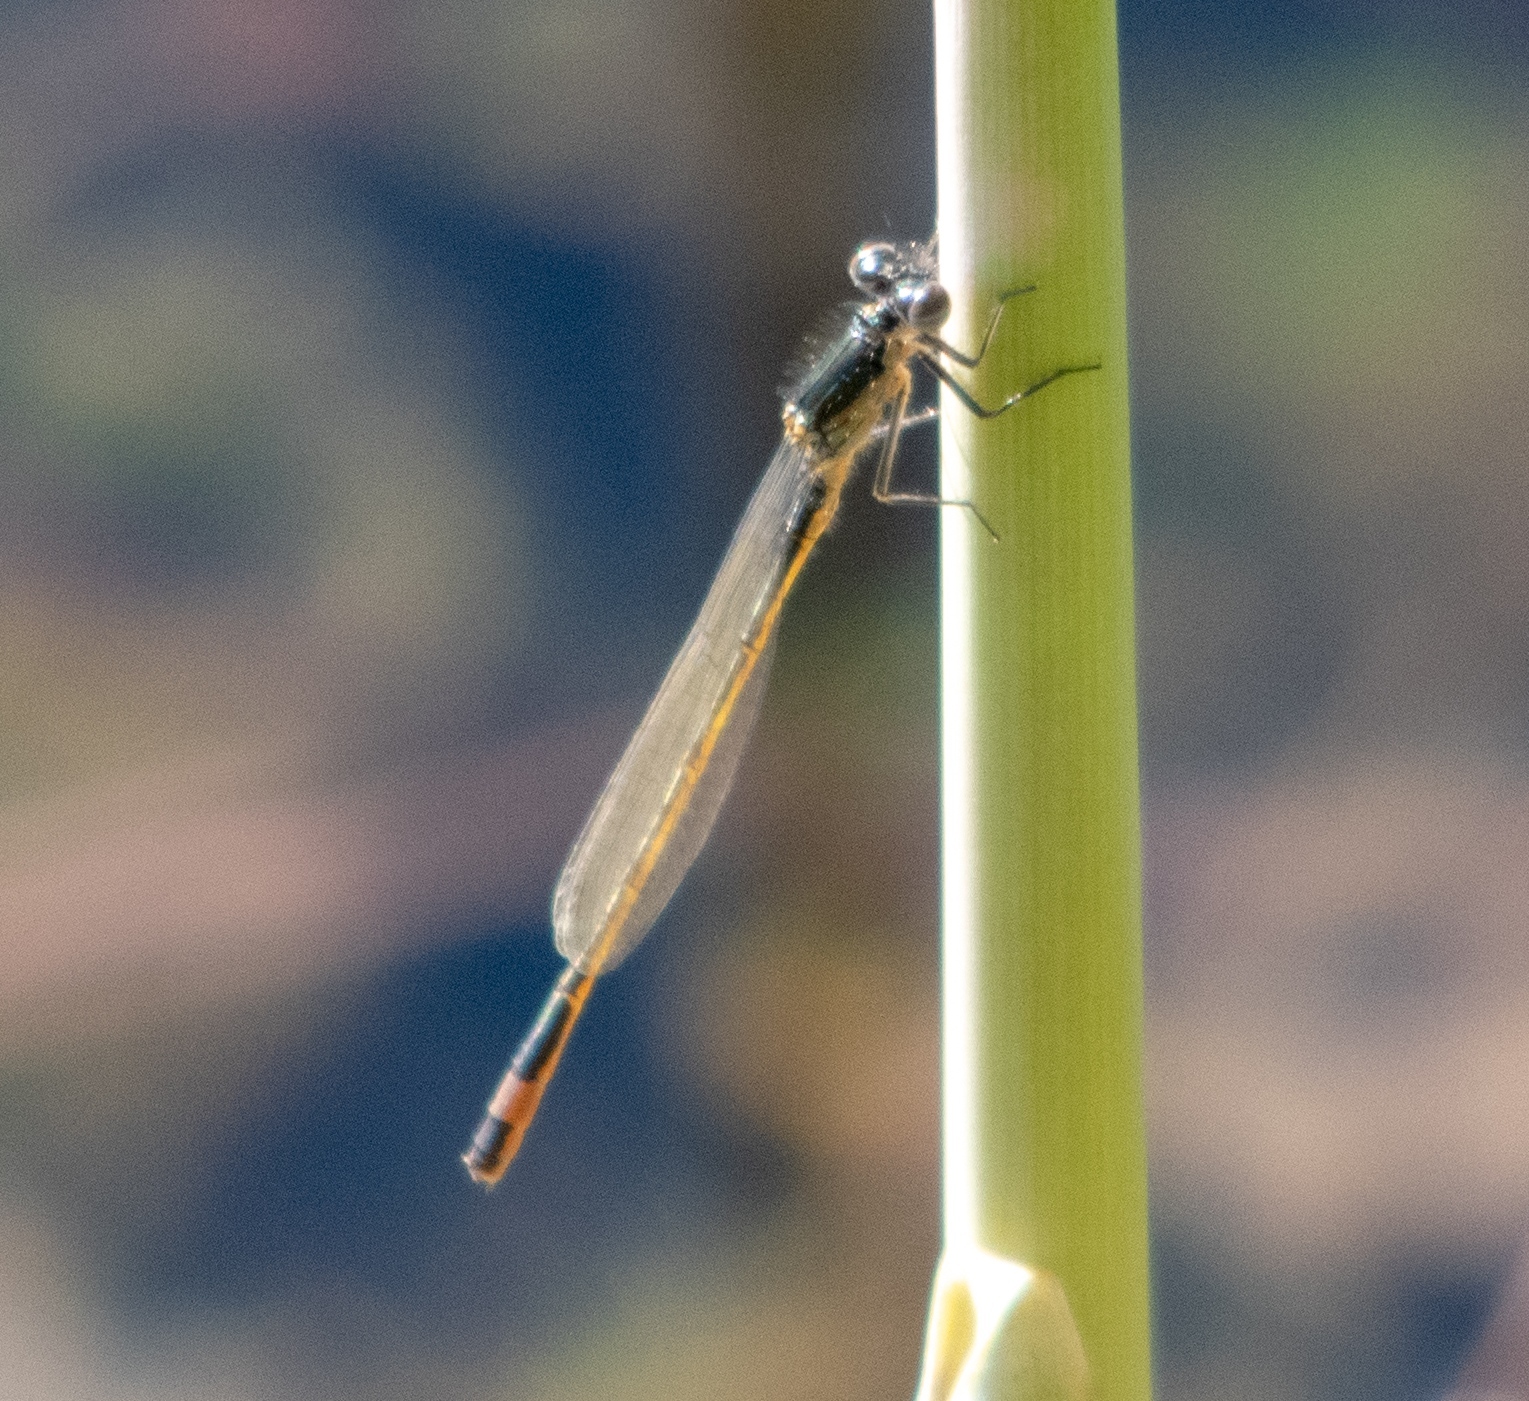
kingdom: Animalia
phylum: Arthropoda
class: Insecta
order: Odonata
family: Coenagrionidae
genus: Ischnura
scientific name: Ischnura elegans
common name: Blue-tailed damselfly
